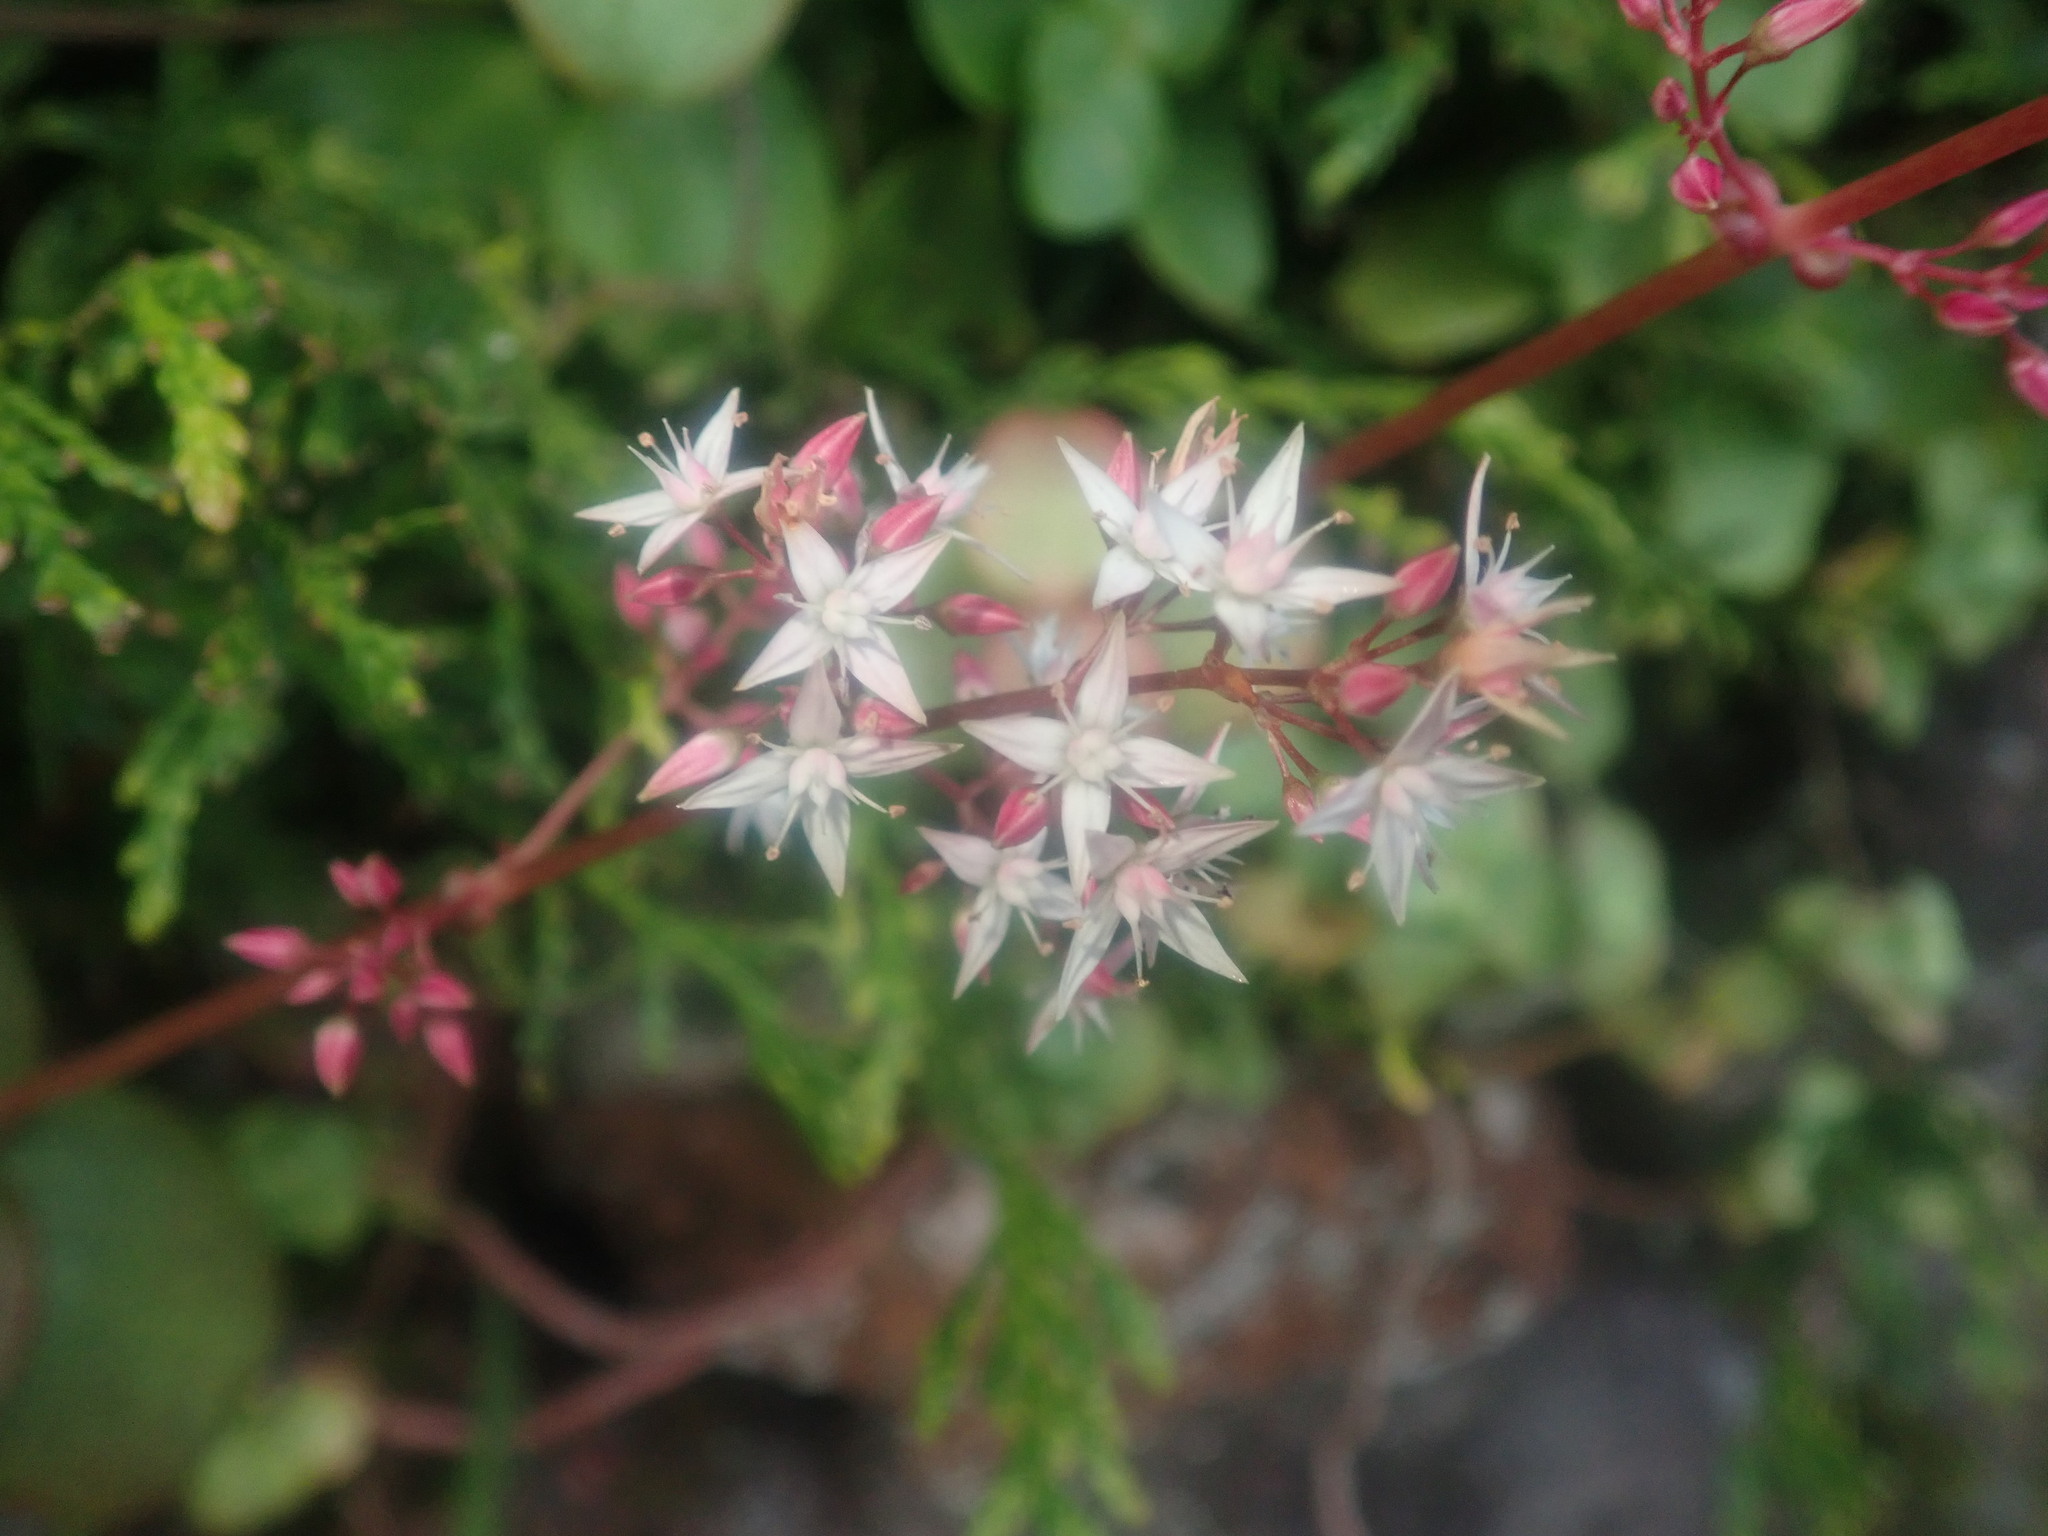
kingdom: Plantae
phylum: Tracheophyta
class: Magnoliopsida
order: Saxifragales
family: Crassulaceae
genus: Crassula
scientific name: Crassula multicava
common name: Cape province pygmyweed
